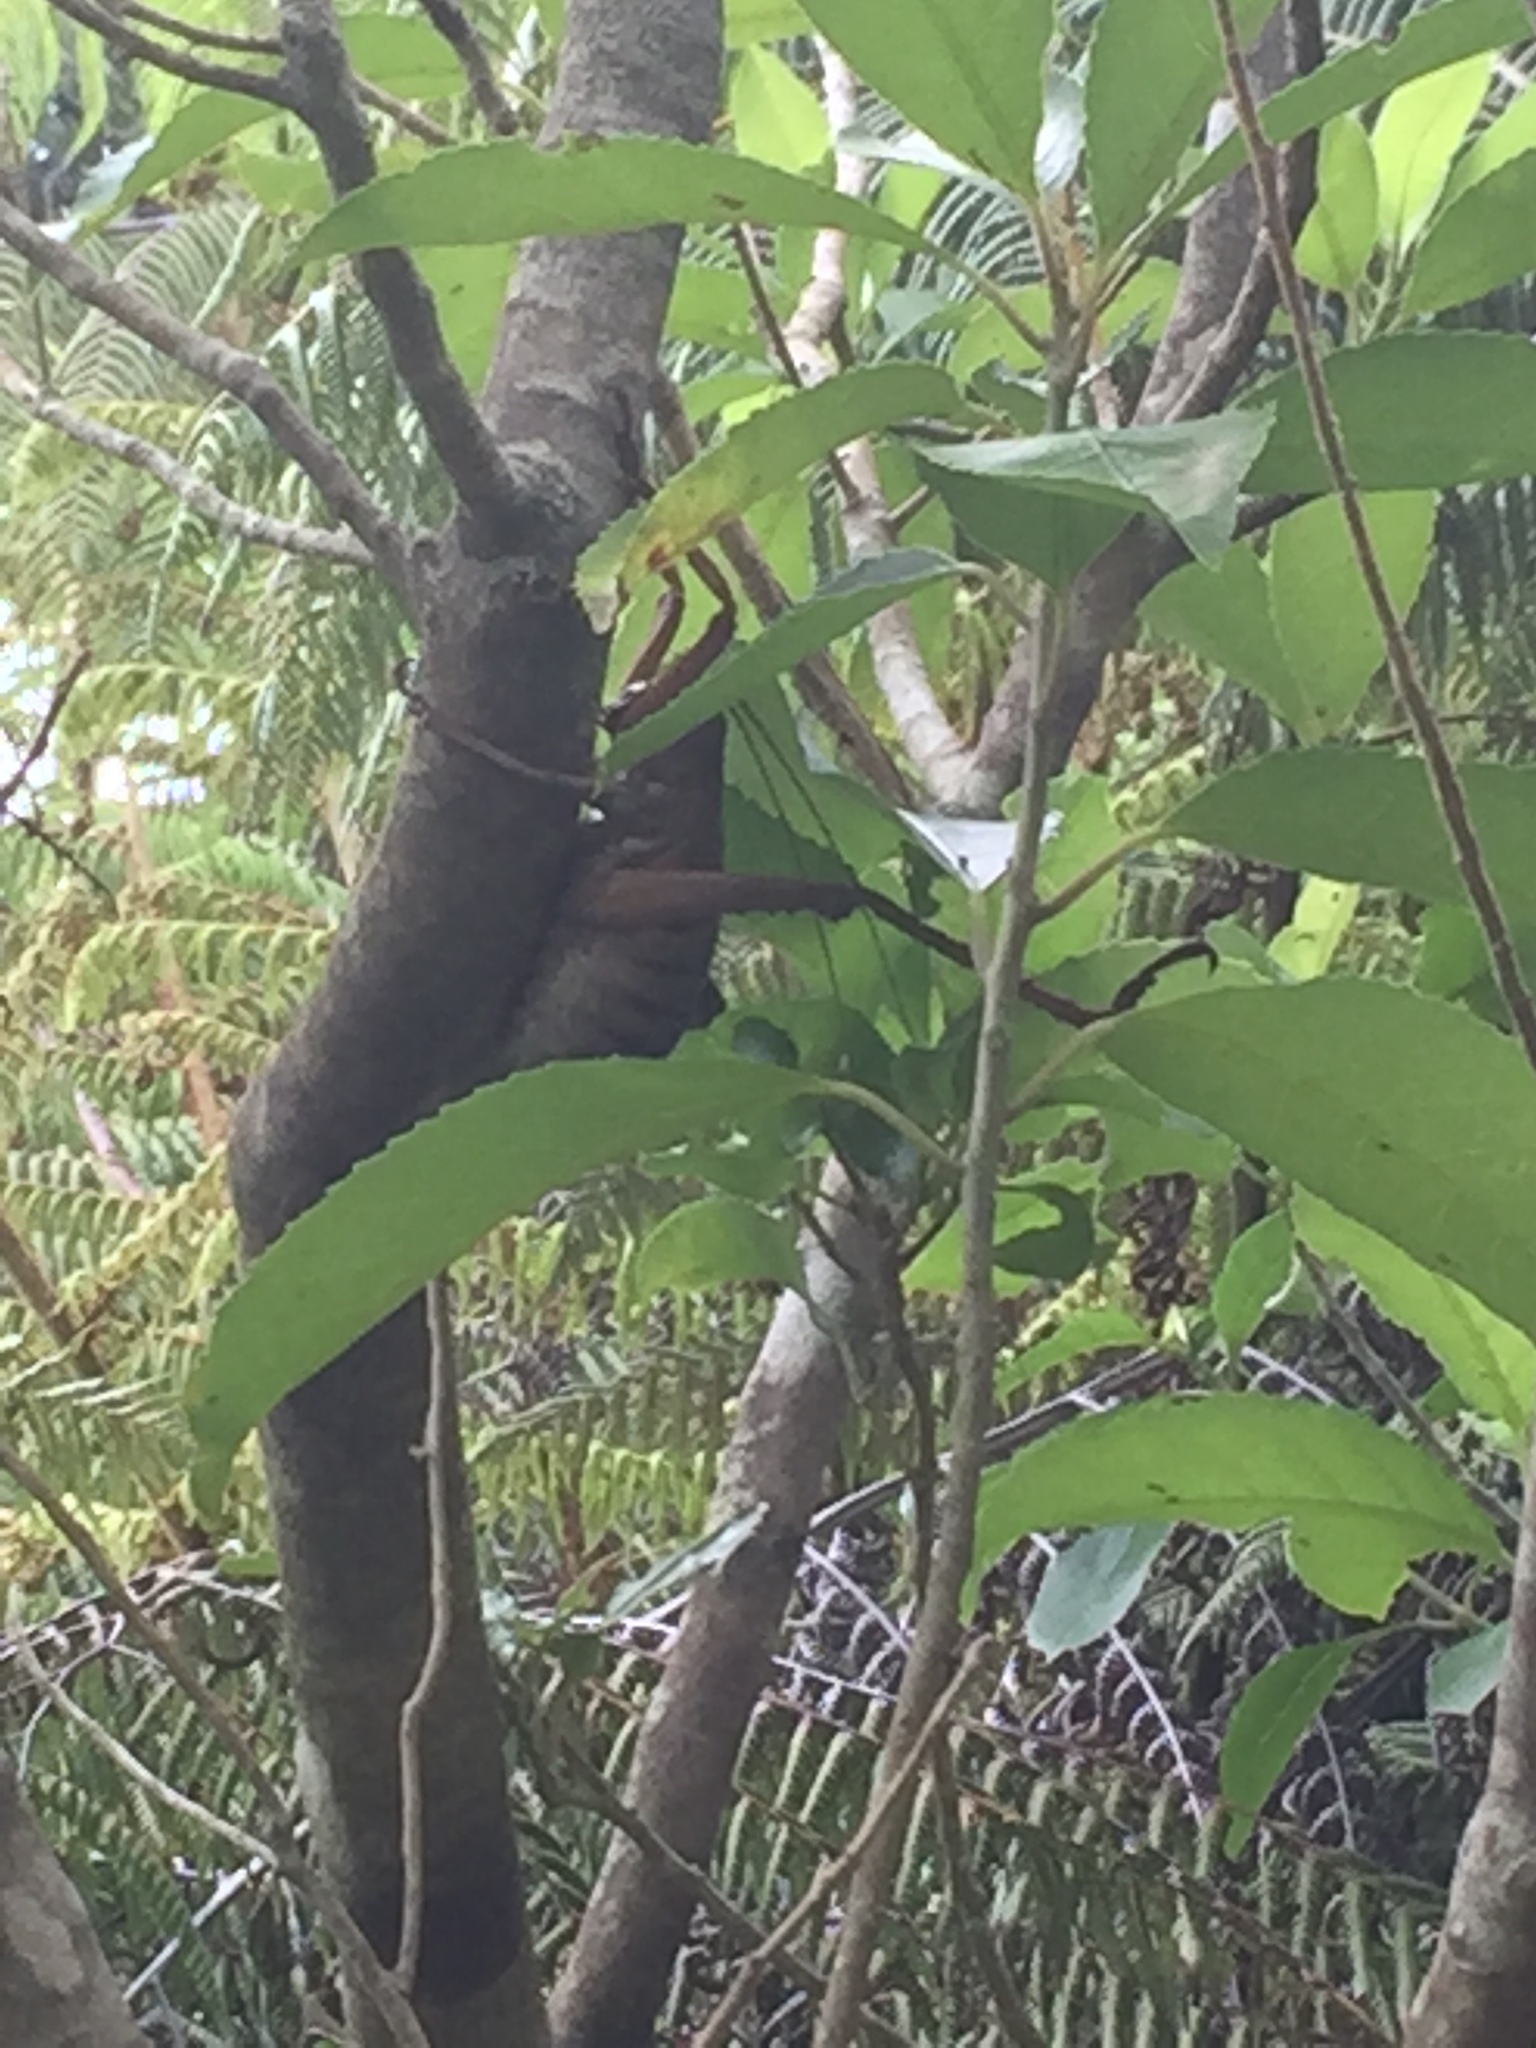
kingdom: Animalia
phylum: Arthropoda
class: Insecta
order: Orthoptera
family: Anostostomatidae
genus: Deinacrida
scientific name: Deinacrida heteracantha
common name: Wetapunga
